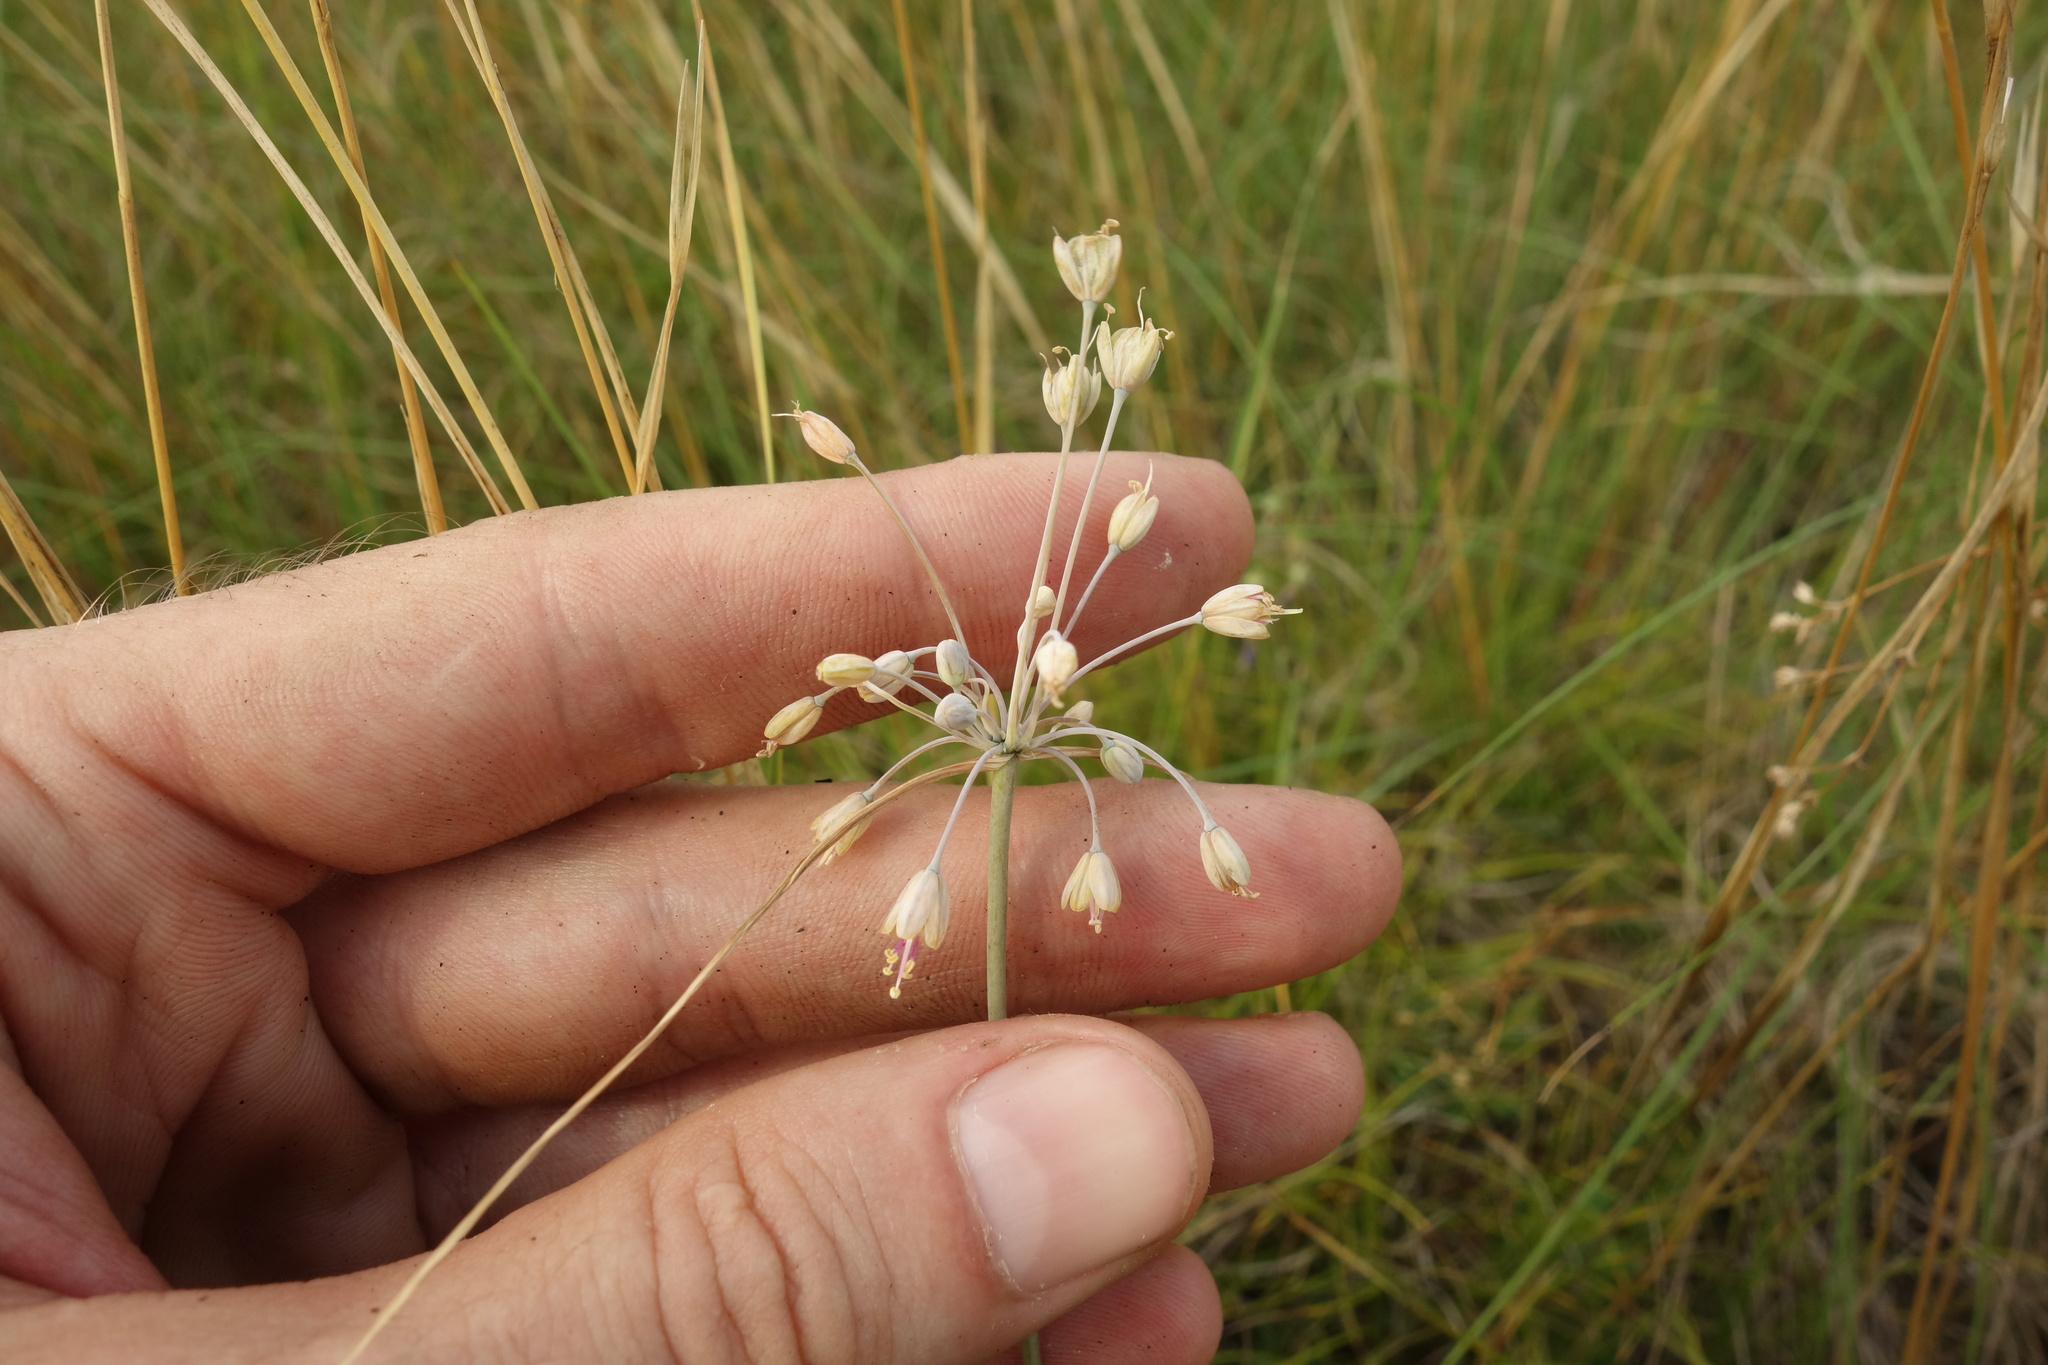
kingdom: Plantae
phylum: Tracheophyta
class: Liliopsida
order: Asparagales
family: Amaryllidaceae
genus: Allium
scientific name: Allium flavum
